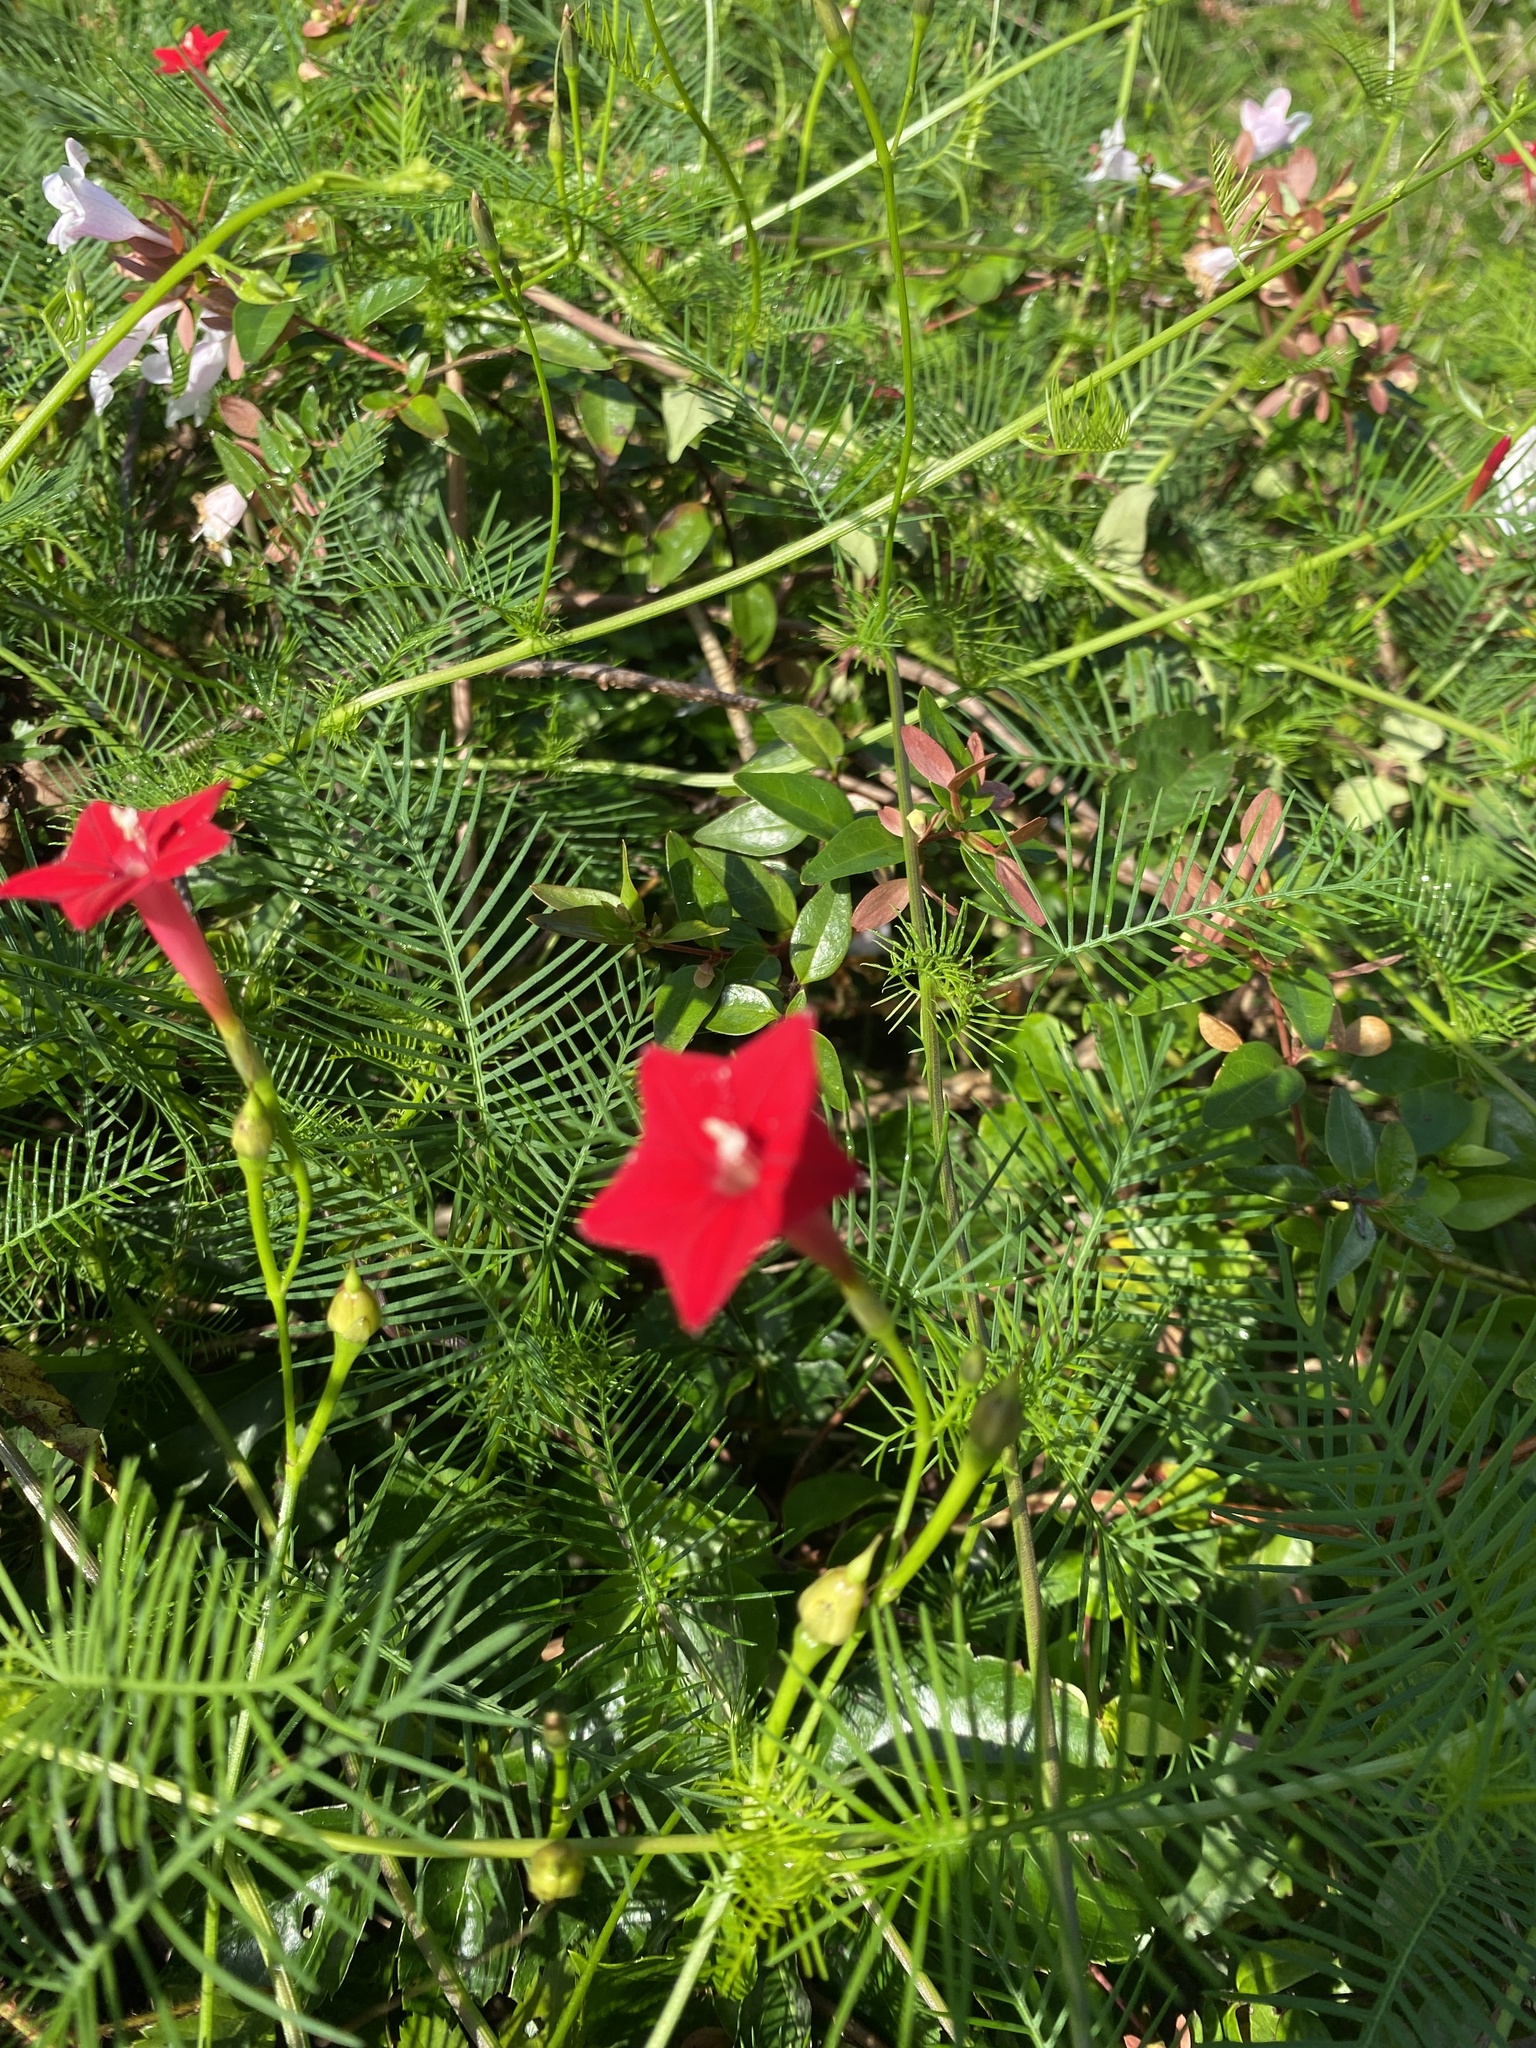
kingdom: Plantae
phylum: Tracheophyta
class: Magnoliopsida
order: Solanales
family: Convolvulaceae
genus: Ipomoea
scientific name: Ipomoea quamoclit
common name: Cypress vine
